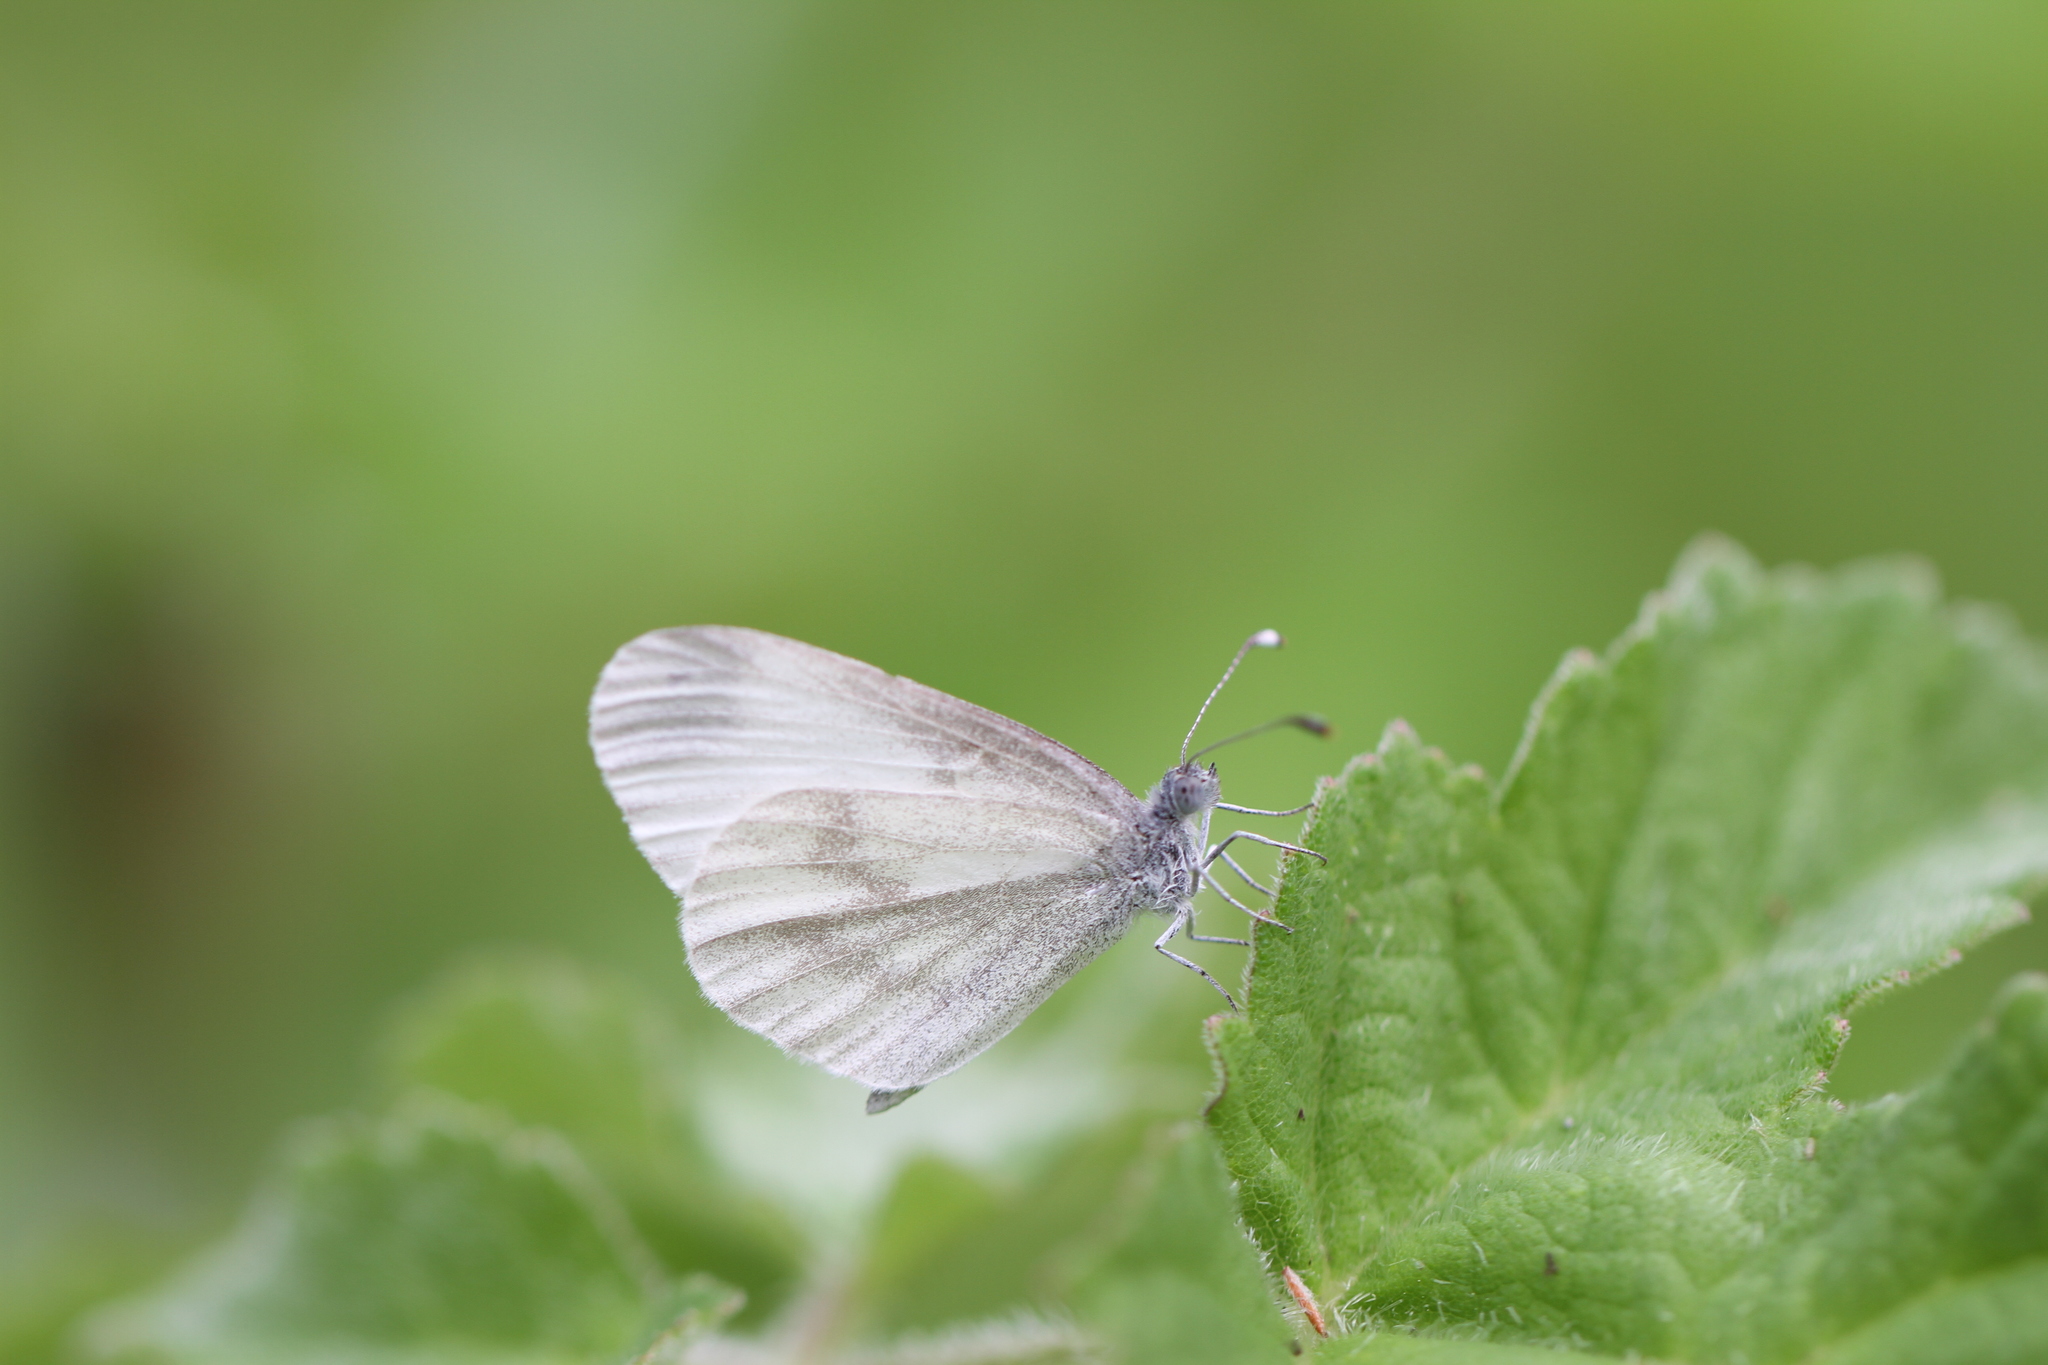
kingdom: Animalia
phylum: Arthropoda
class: Insecta
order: Lepidoptera
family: Pieridae
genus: Leptidea
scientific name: Leptidea
